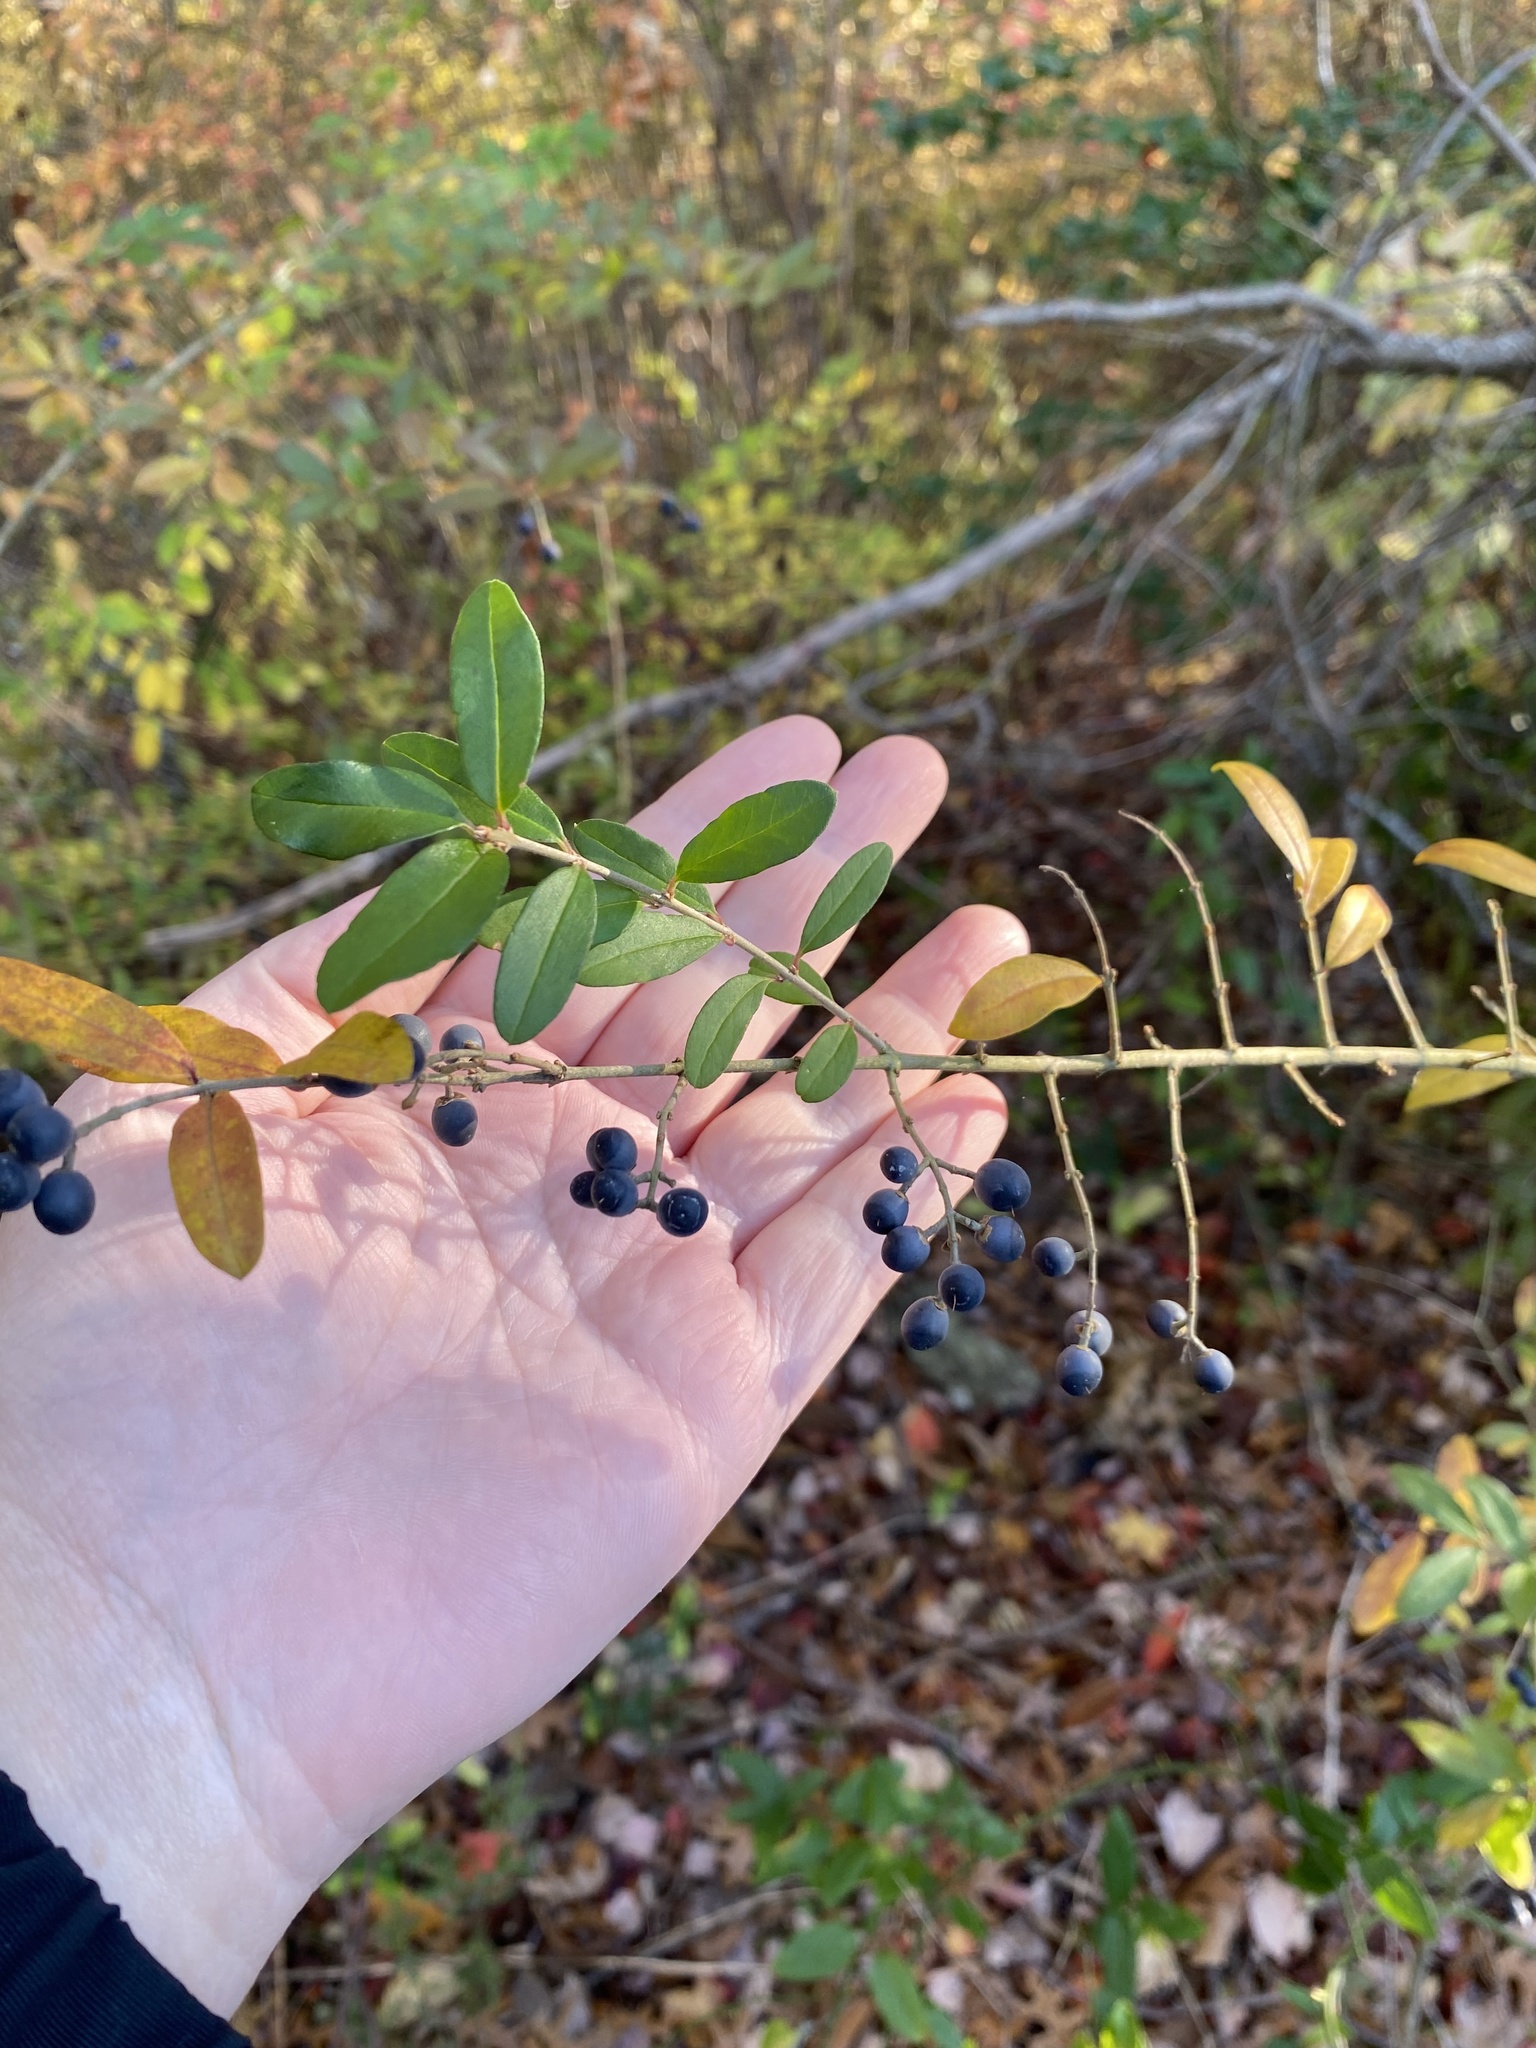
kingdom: Plantae
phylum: Tracheophyta
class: Magnoliopsida
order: Lamiales
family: Oleaceae
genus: Ligustrum
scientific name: Ligustrum obtusifolium
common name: Border privet
